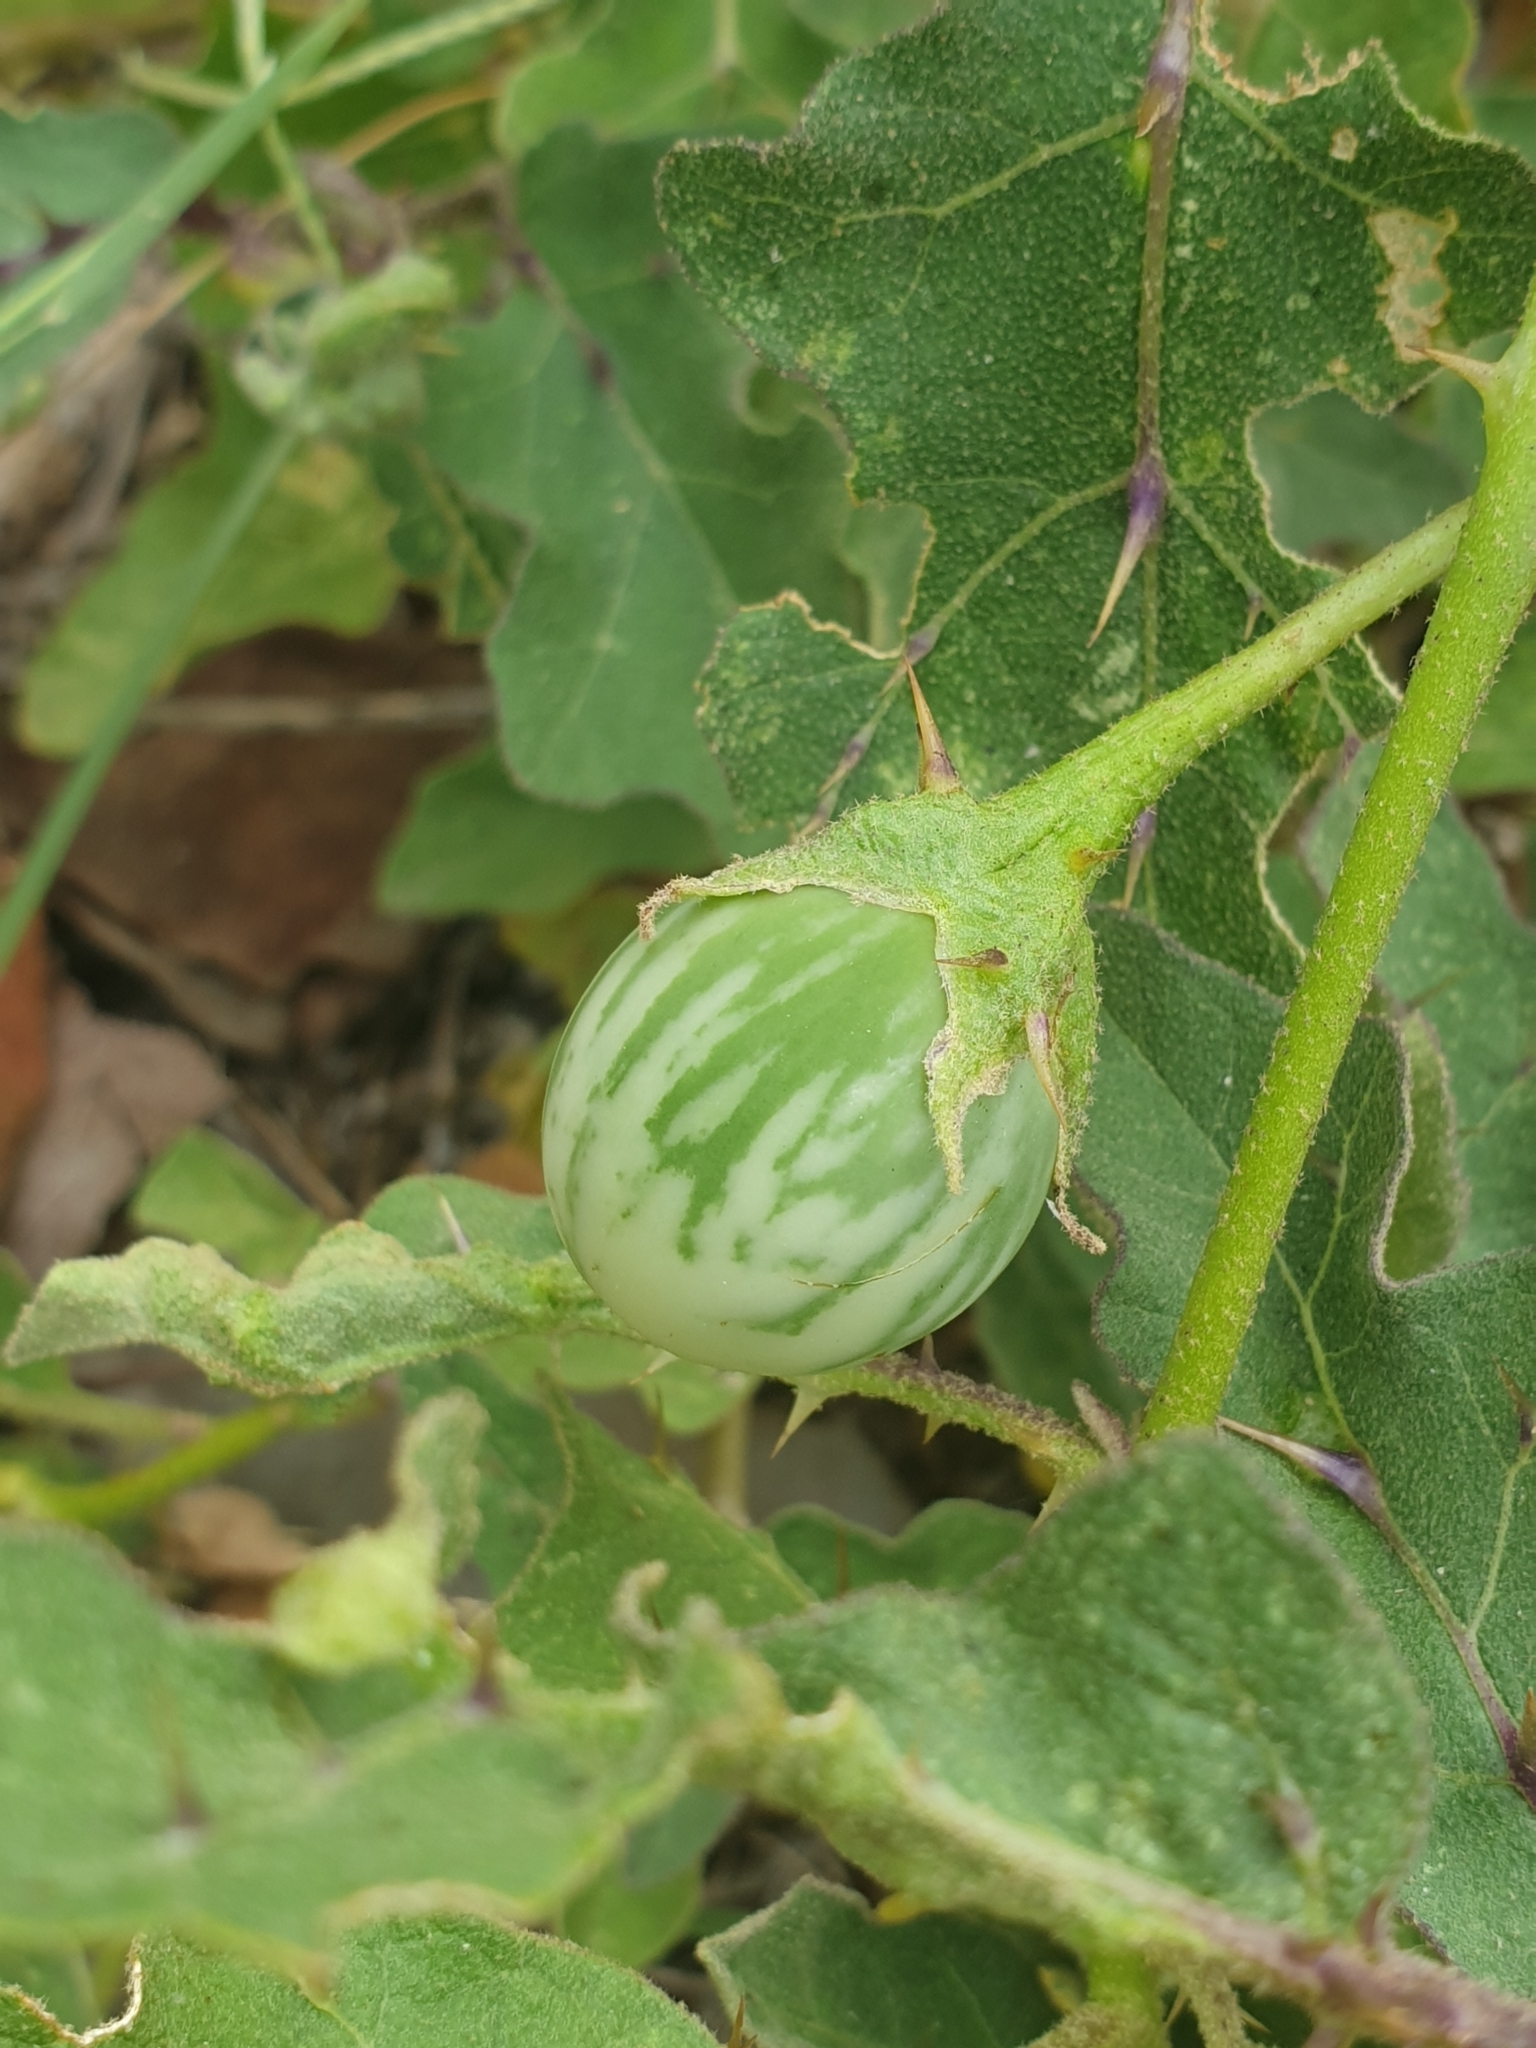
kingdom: Plantae
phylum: Tracheophyta
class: Magnoliopsida
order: Solanales
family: Solanaceae
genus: Solanum
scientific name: Solanum insanum
